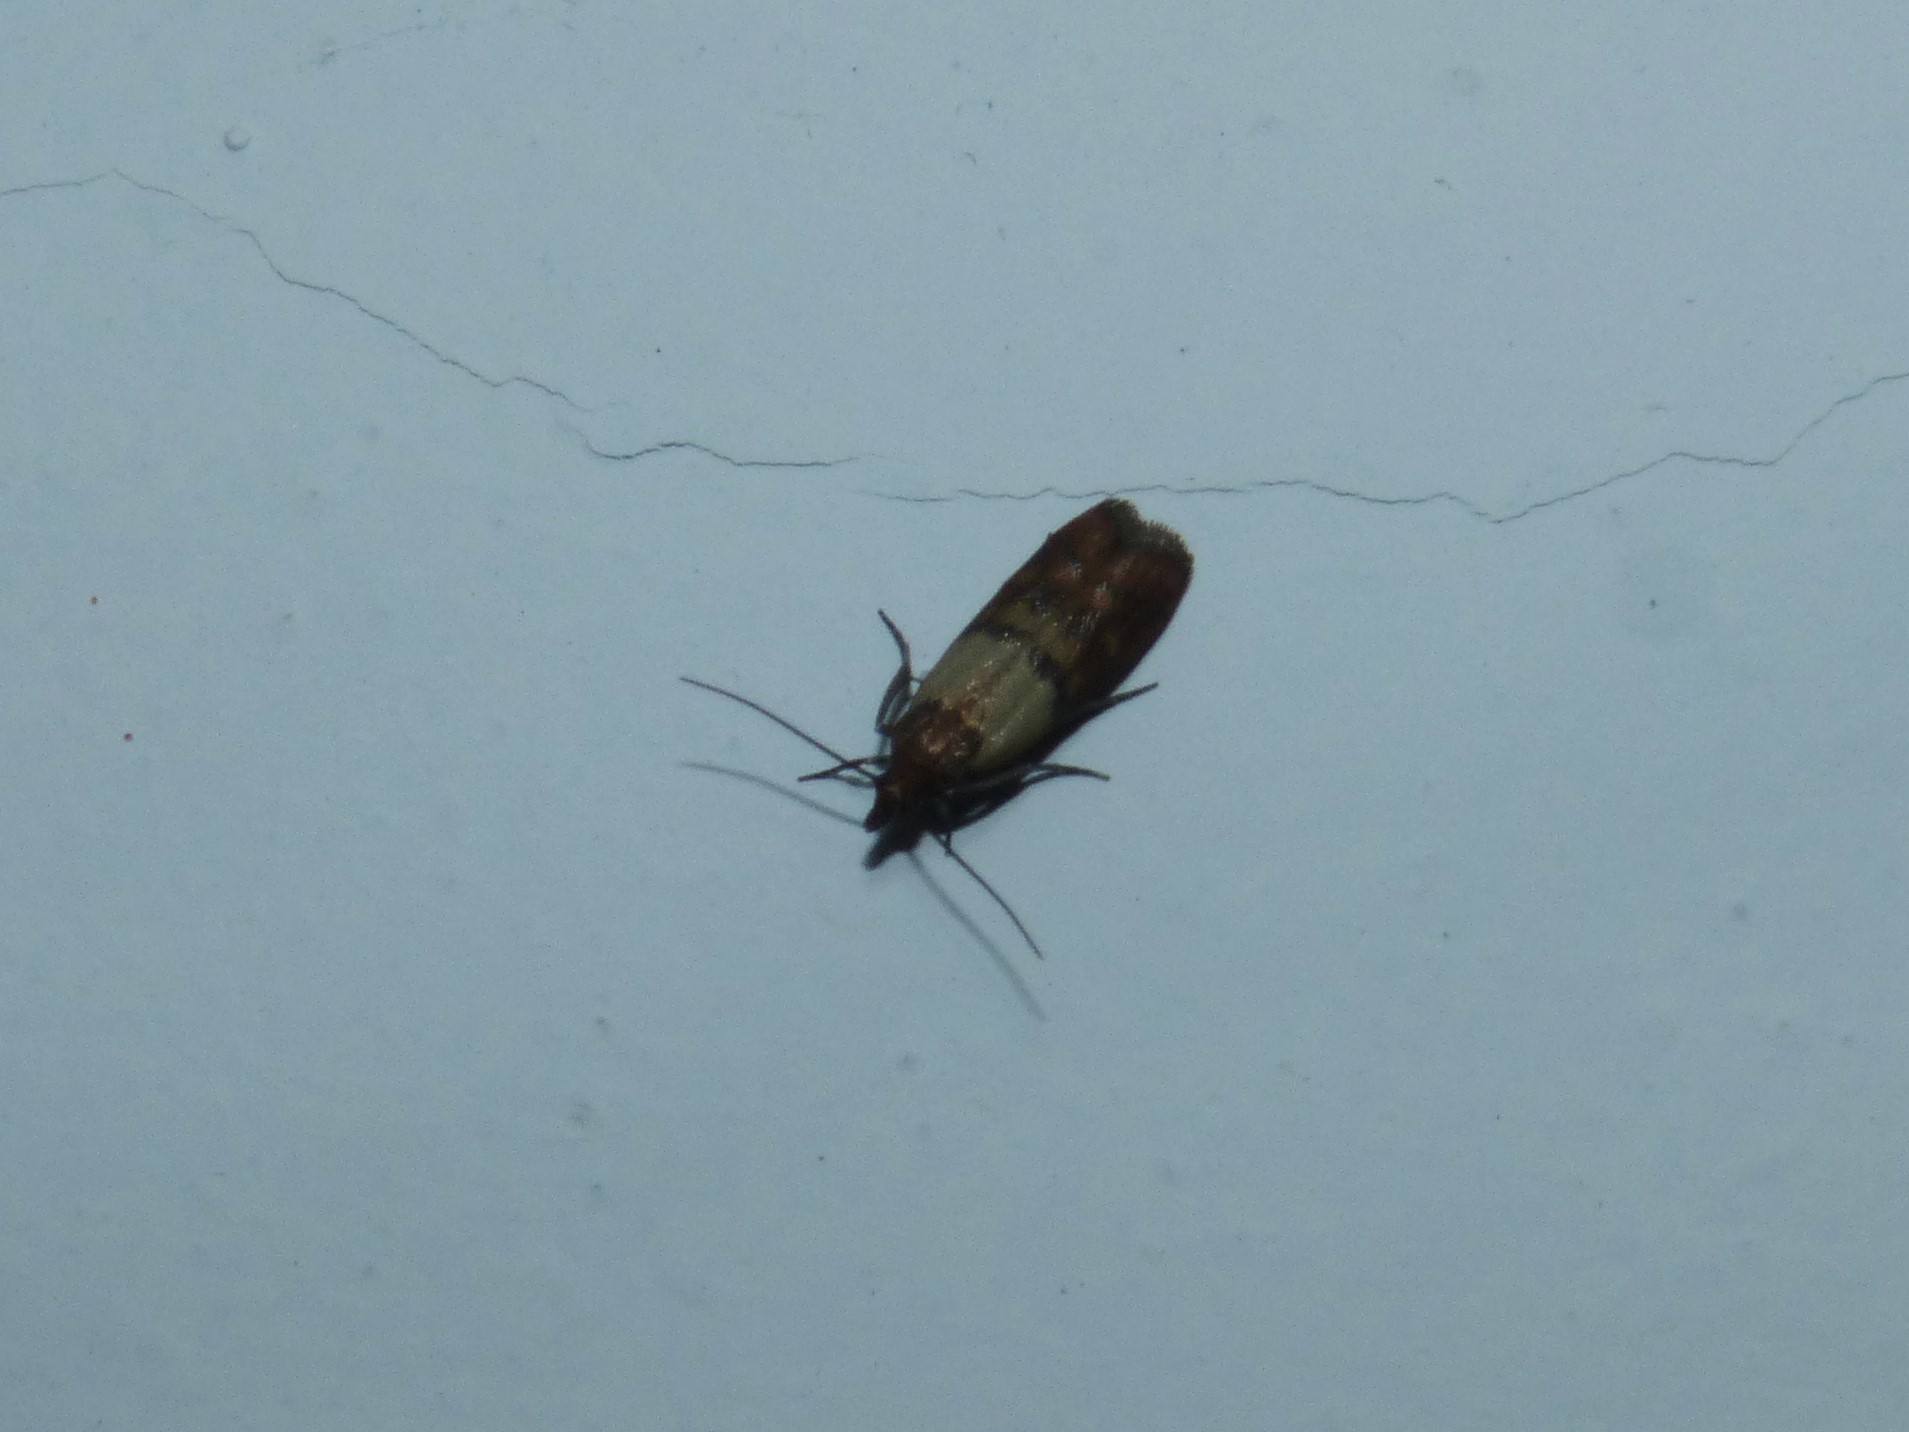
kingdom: Animalia
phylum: Arthropoda
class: Insecta
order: Lepidoptera
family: Pyralidae
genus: Plodia
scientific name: Plodia interpunctella
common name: Indian meal moth
